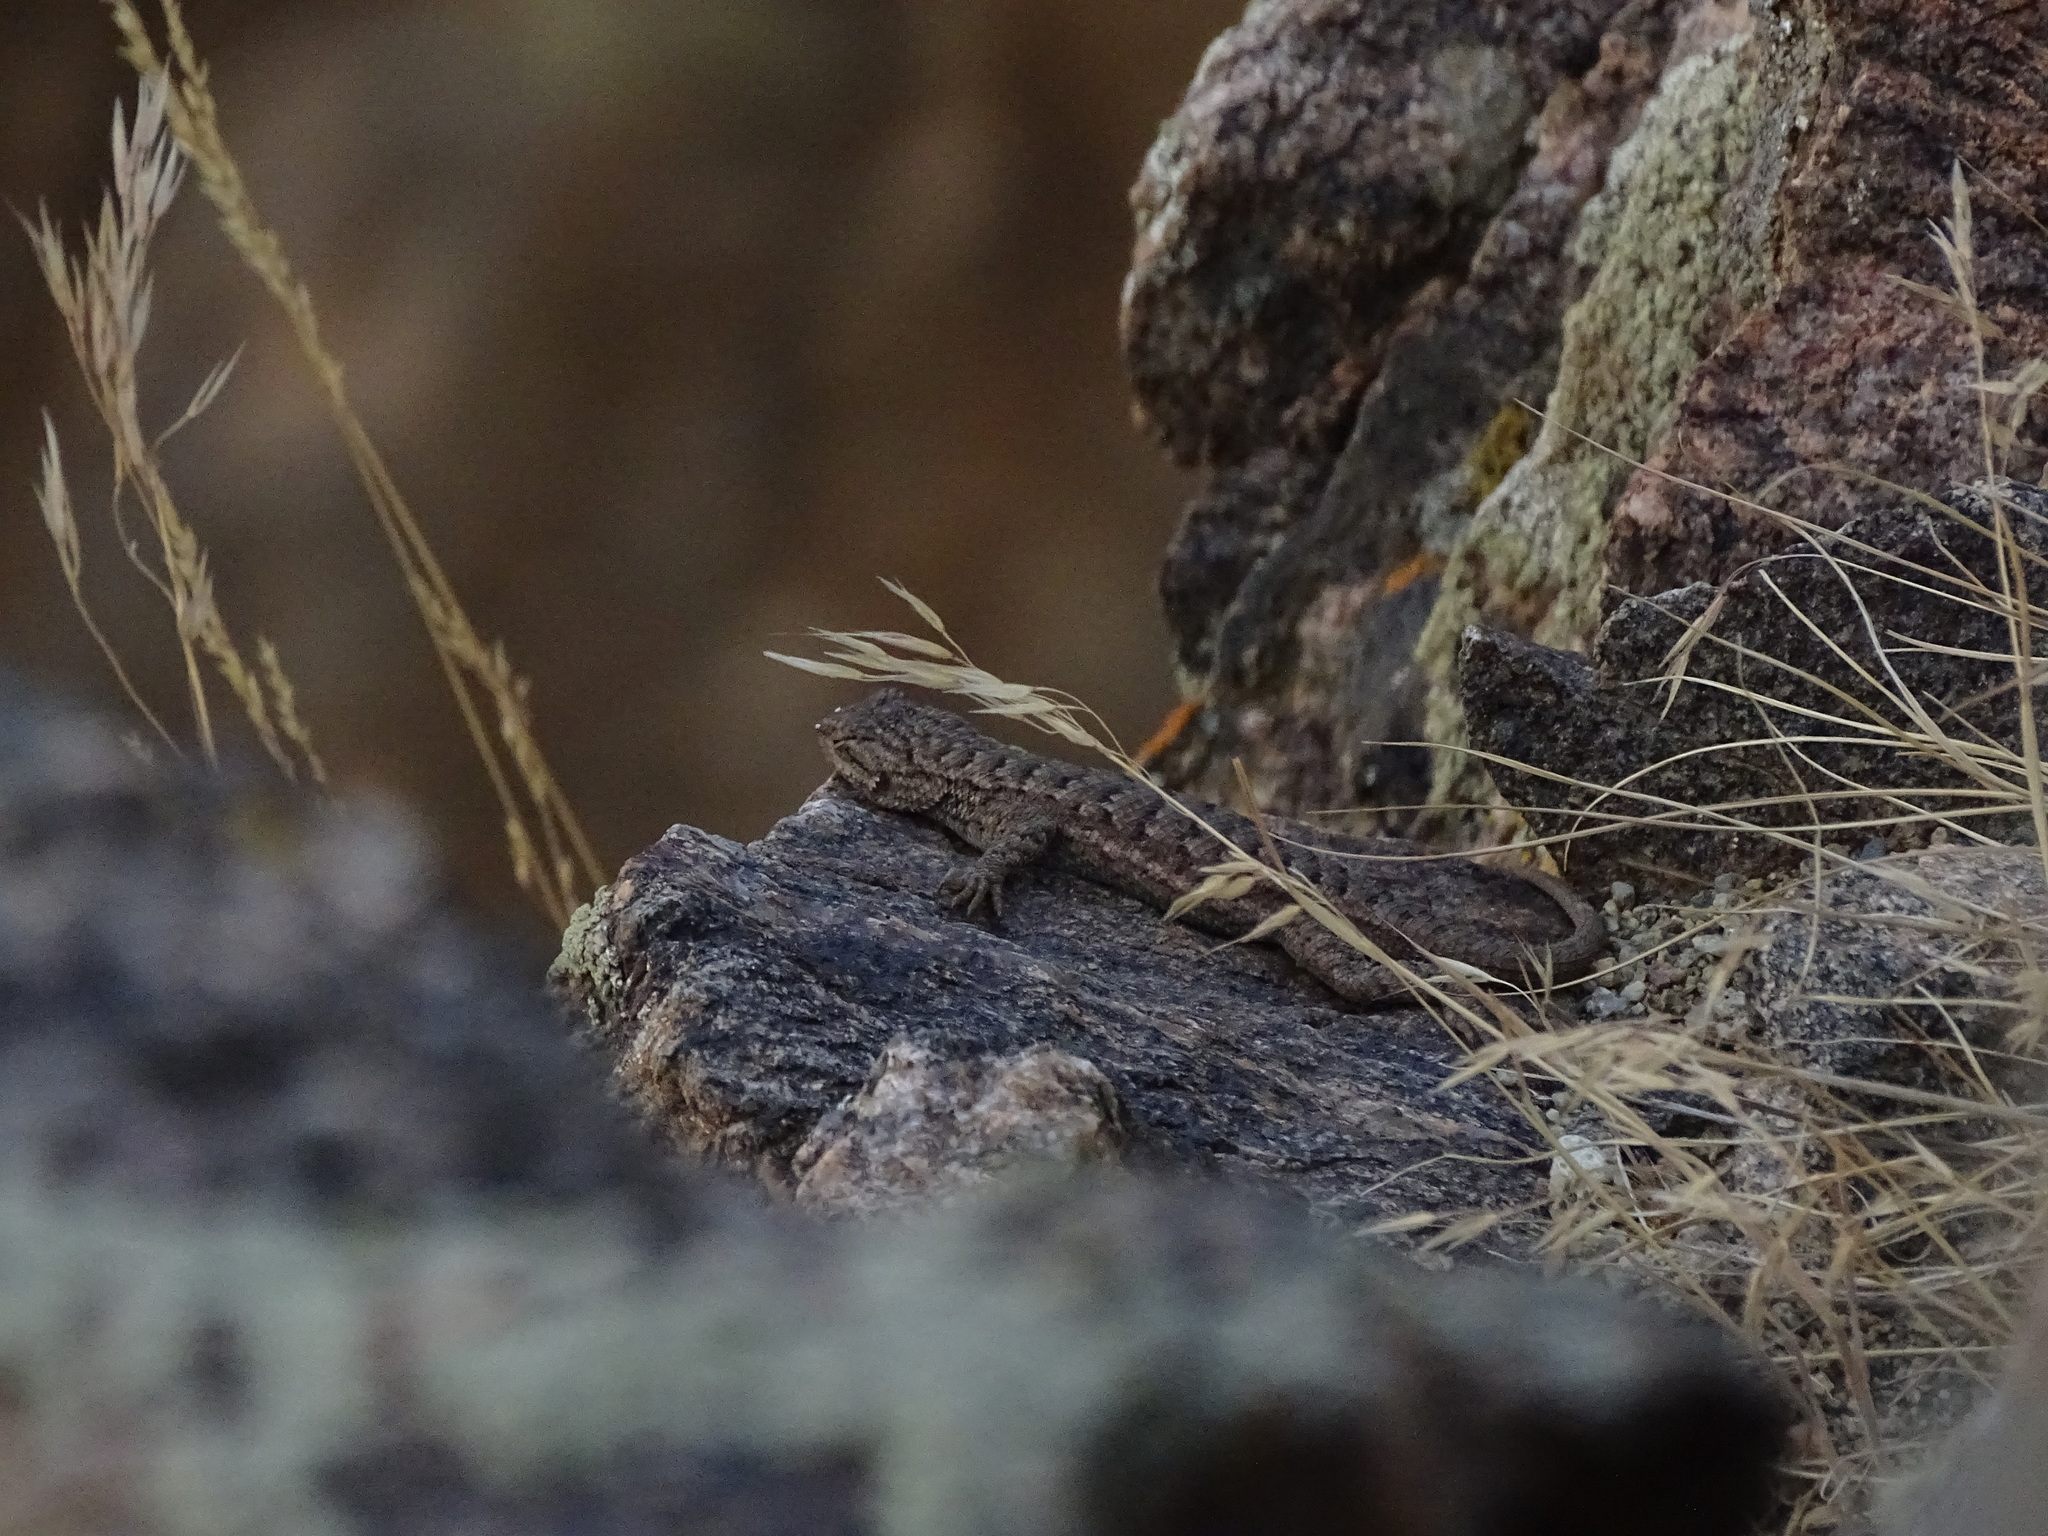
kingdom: Animalia
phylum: Chordata
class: Squamata
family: Phrynosomatidae
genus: Sceloporus
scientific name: Sceloporus tristichus
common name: Plateau fence lizard
